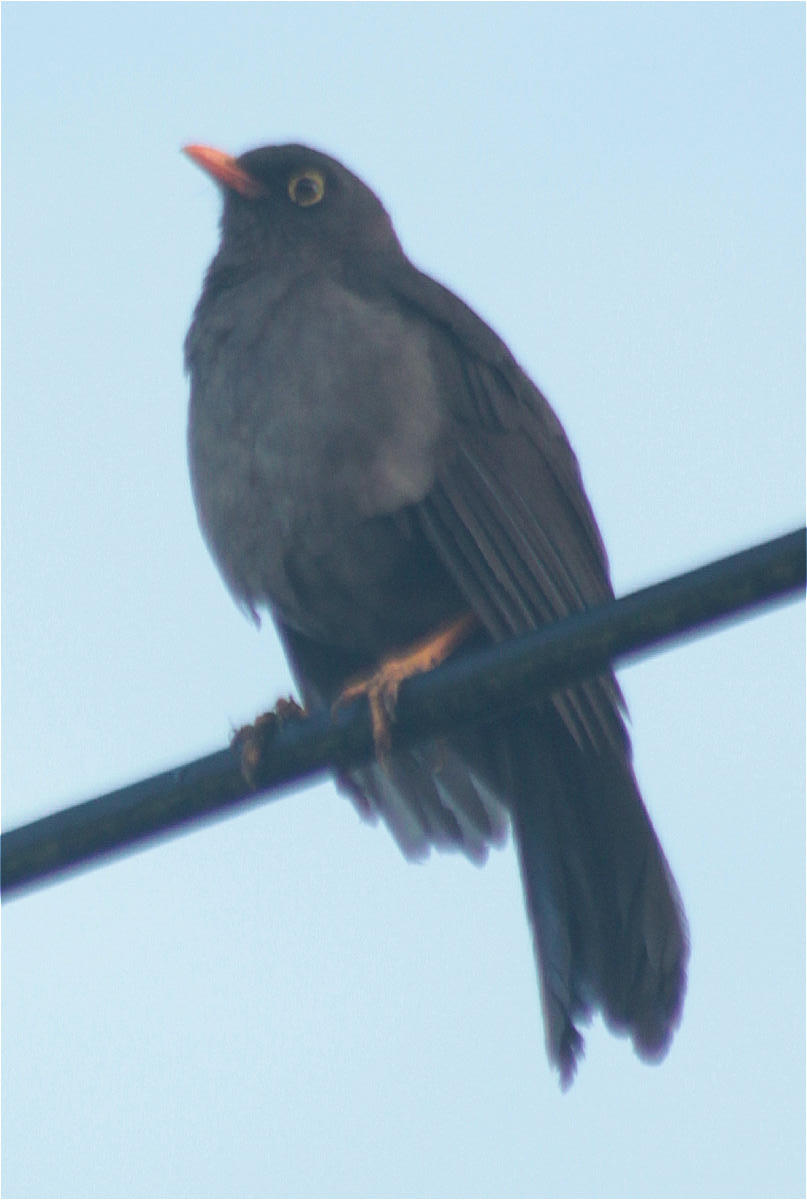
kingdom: Animalia
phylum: Chordata
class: Aves
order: Passeriformes
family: Turdidae
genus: Turdus
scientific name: Turdus fuscater
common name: Great thrush
